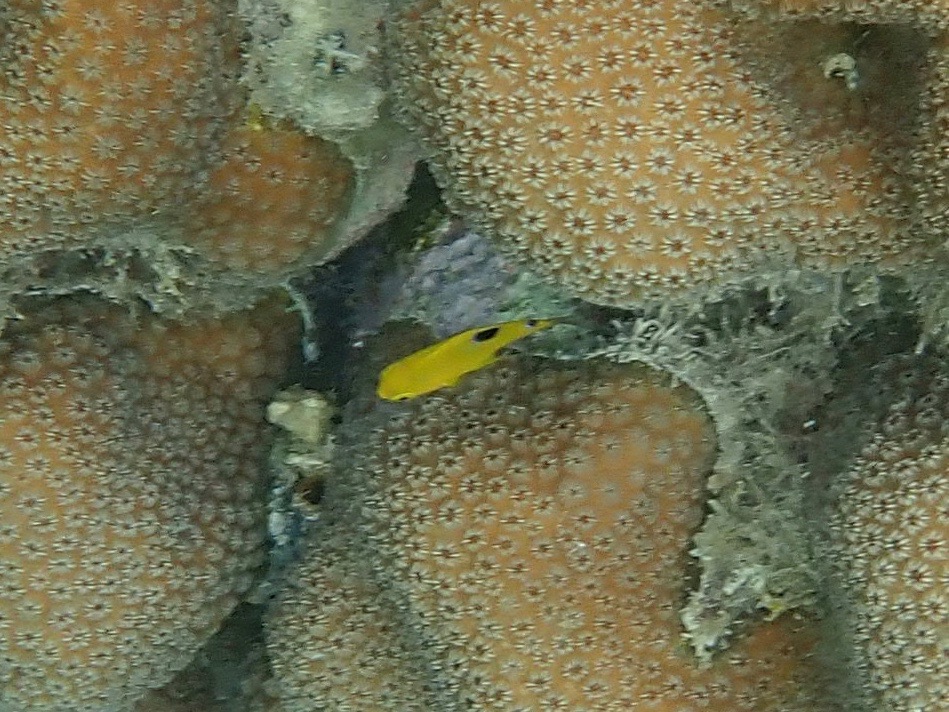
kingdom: Animalia
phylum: Chordata
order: Perciformes
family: Pomacentridae
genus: Stegastes
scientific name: Stegastes planifrons
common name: Threespot damselfish
